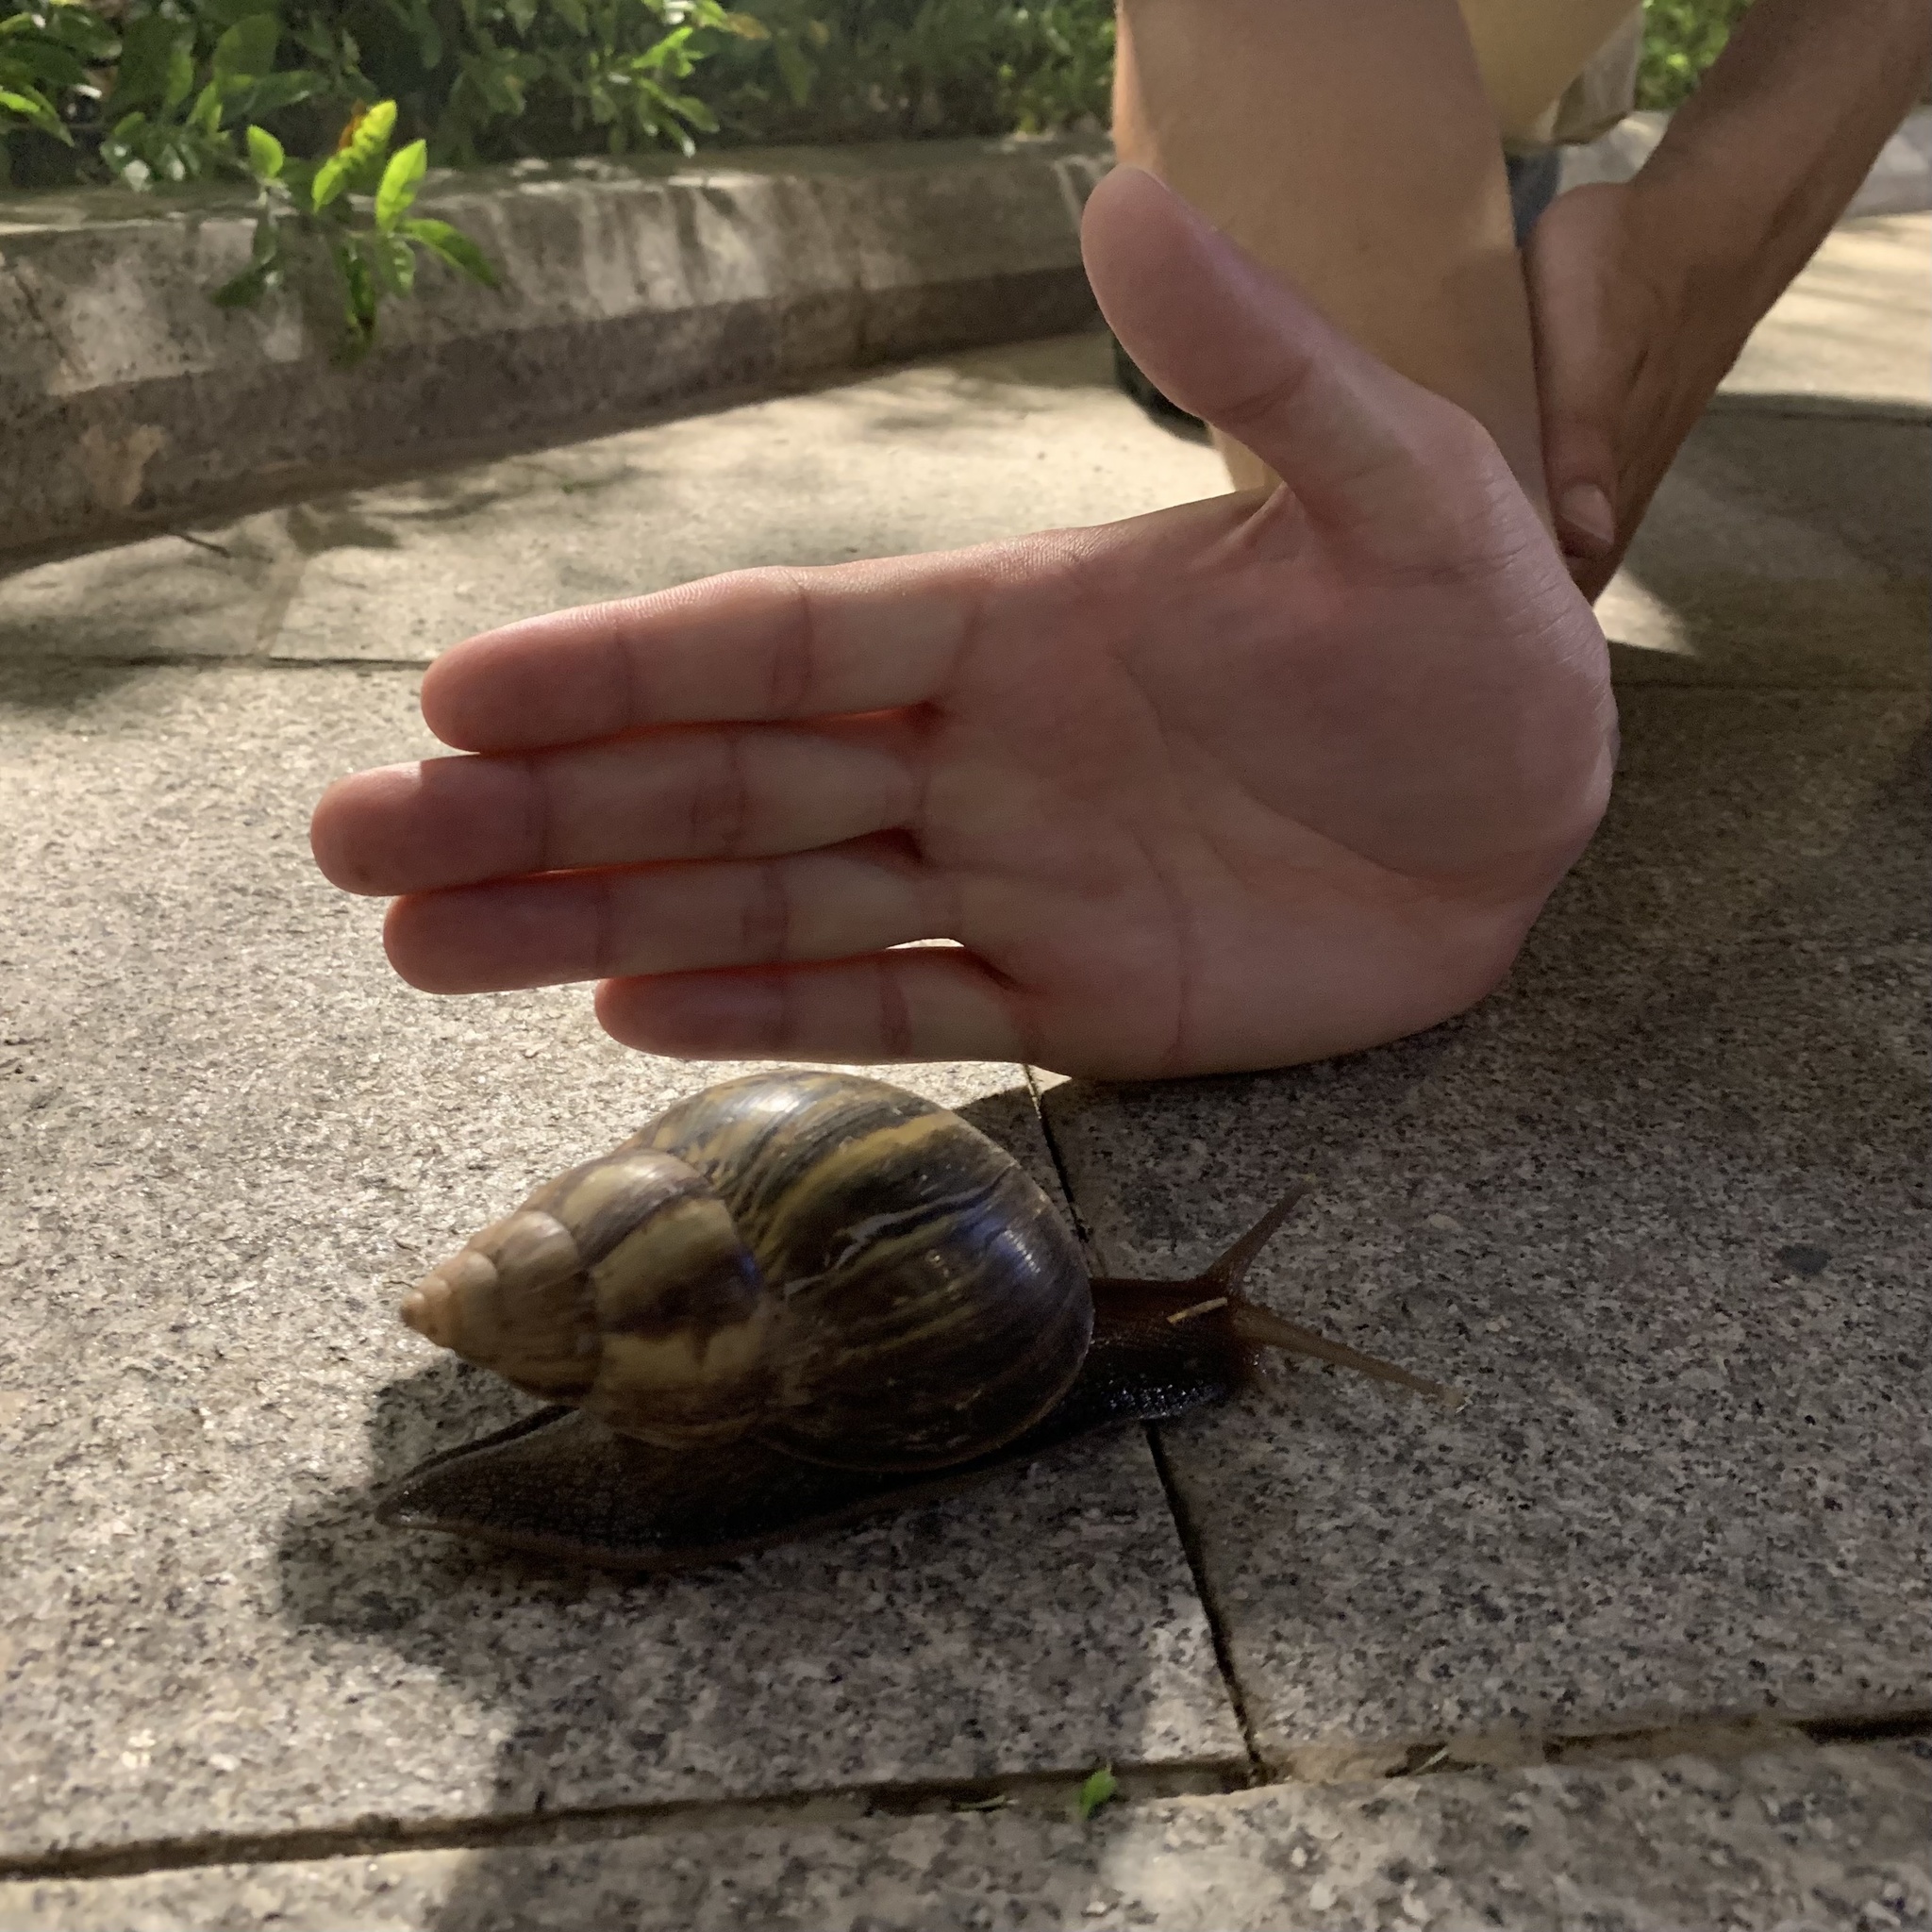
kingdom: Animalia
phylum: Mollusca
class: Gastropoda
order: Stylommatophora
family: Achatinidae
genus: Lissachatina
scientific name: Lissachatina fulica
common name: Giant african snail
